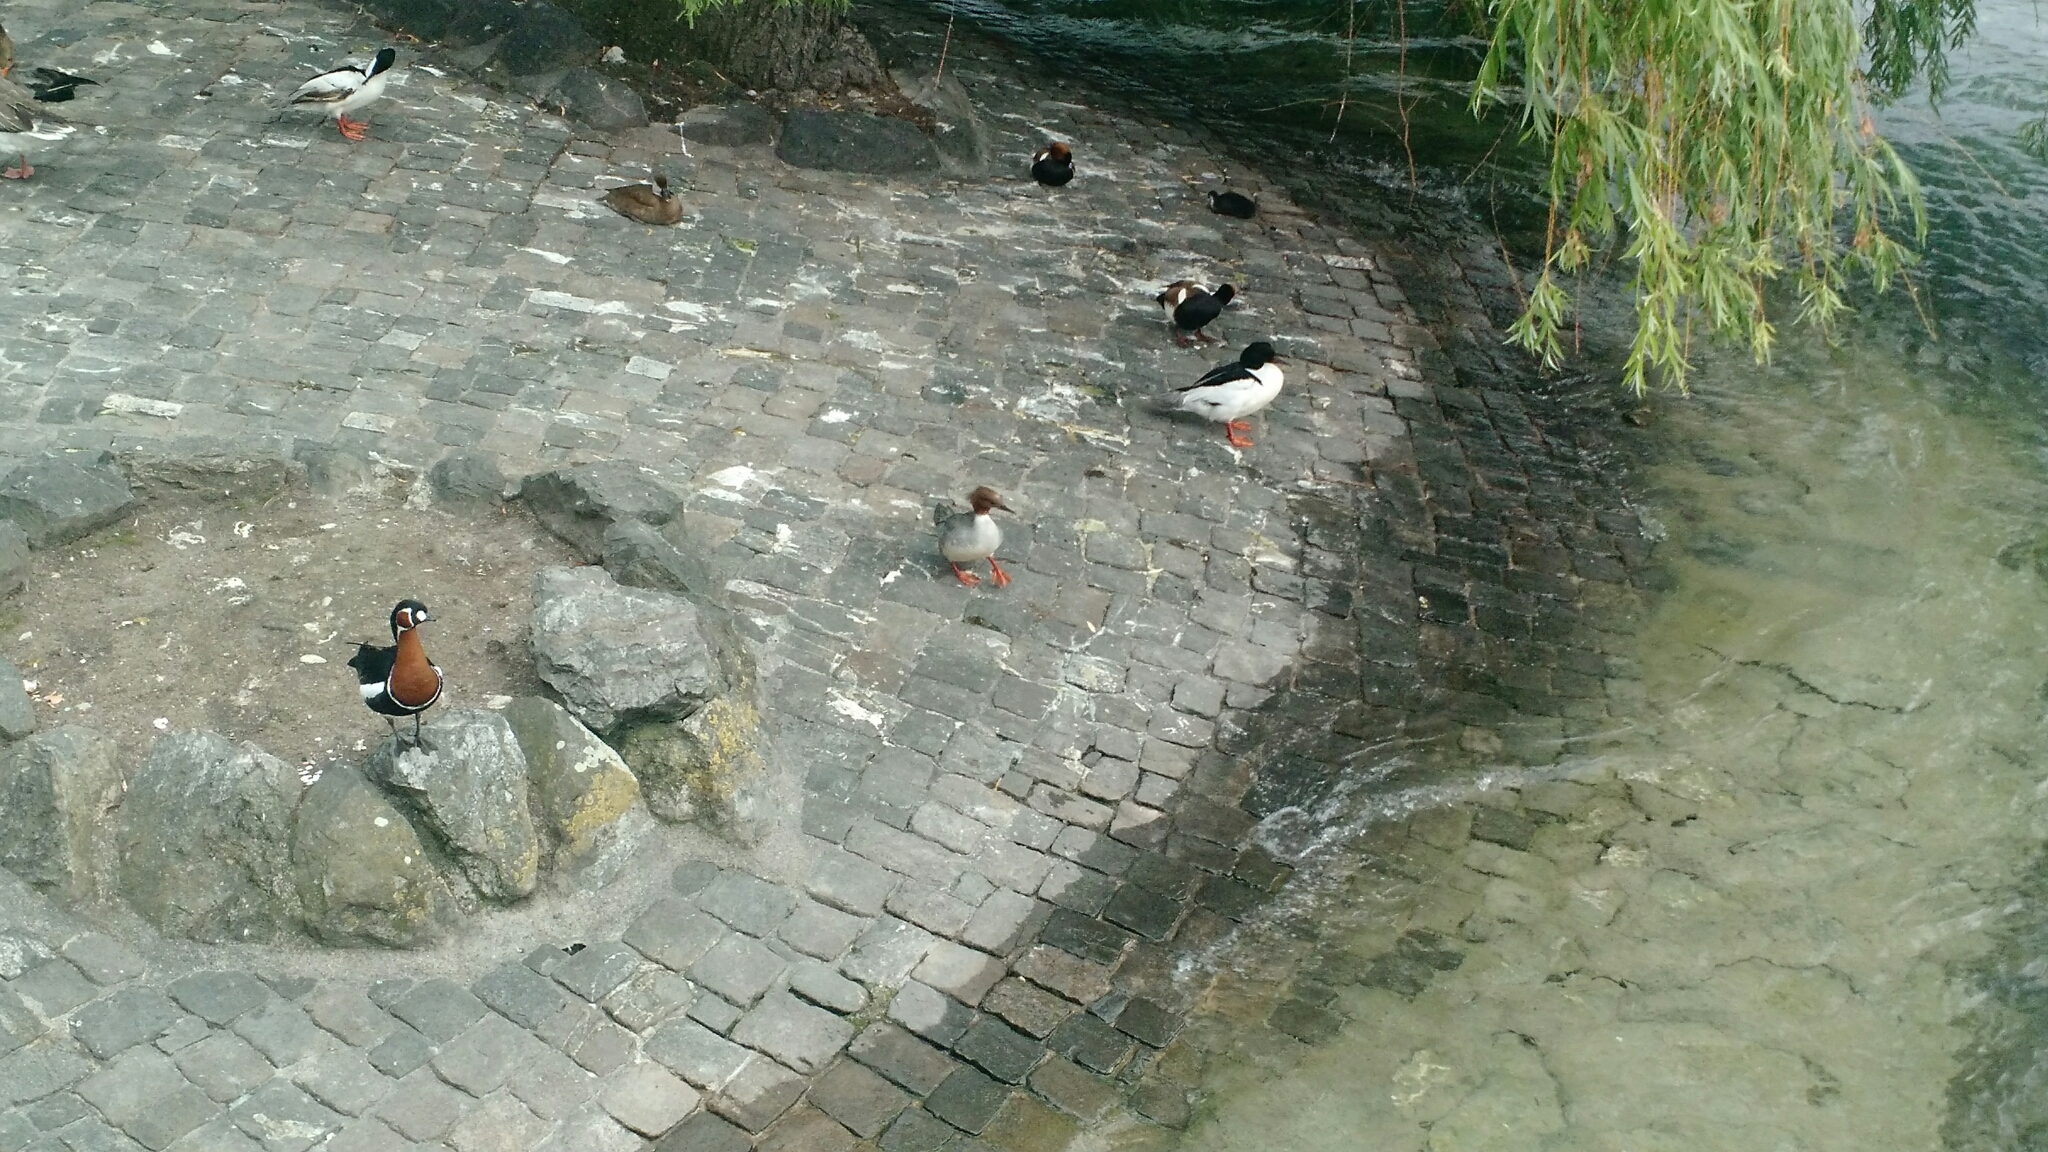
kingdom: Animalia
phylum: Chordata
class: Aves
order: Anseriformes
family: Anatidae
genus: Mergus
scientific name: Mergus merganser
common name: Common merganser
